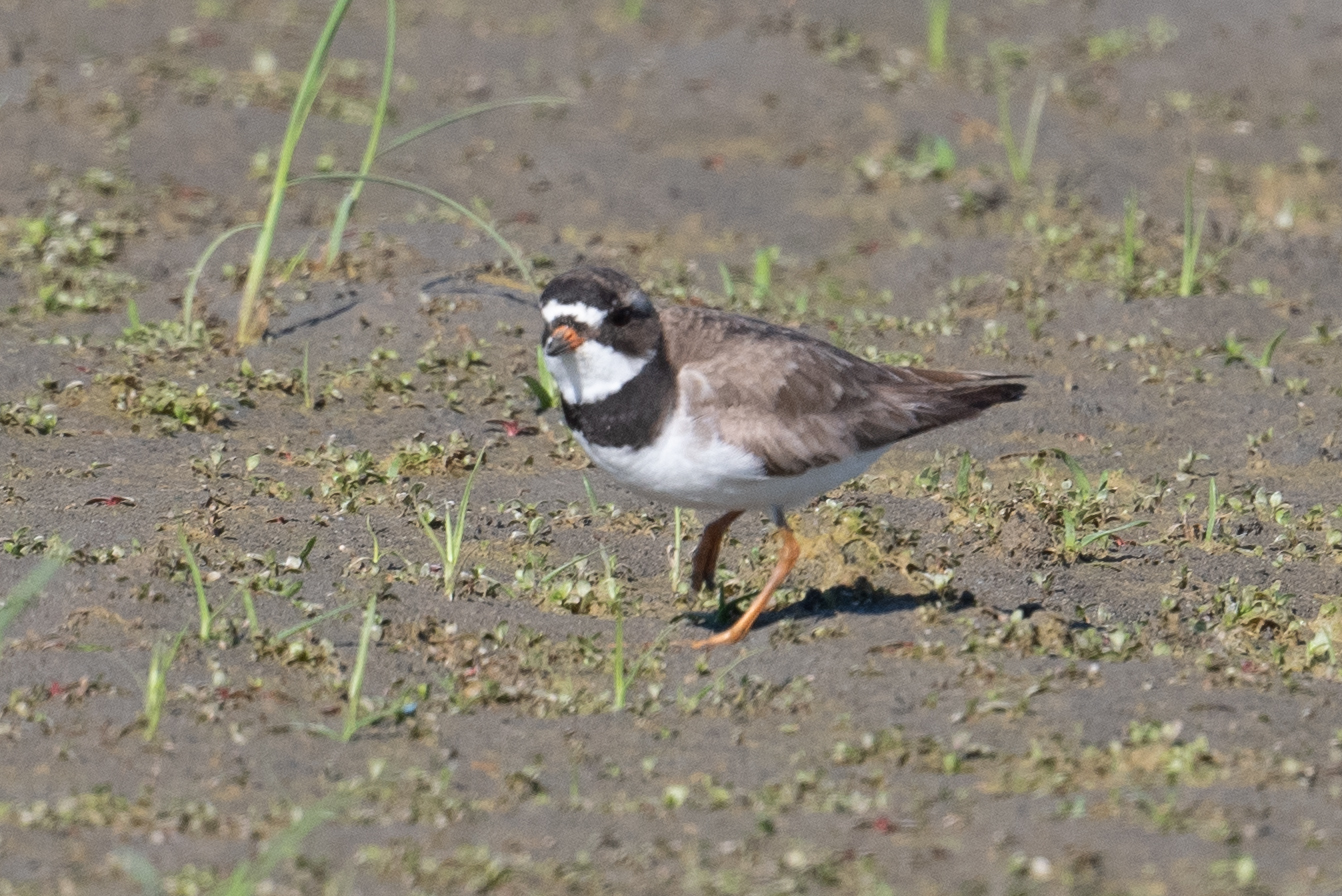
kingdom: Animalia
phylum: Chordata
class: Aves
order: Charadriiformes
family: Charadriidae
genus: Charadrius
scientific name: Charadrius semipalmatus
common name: Semipalmated plover
